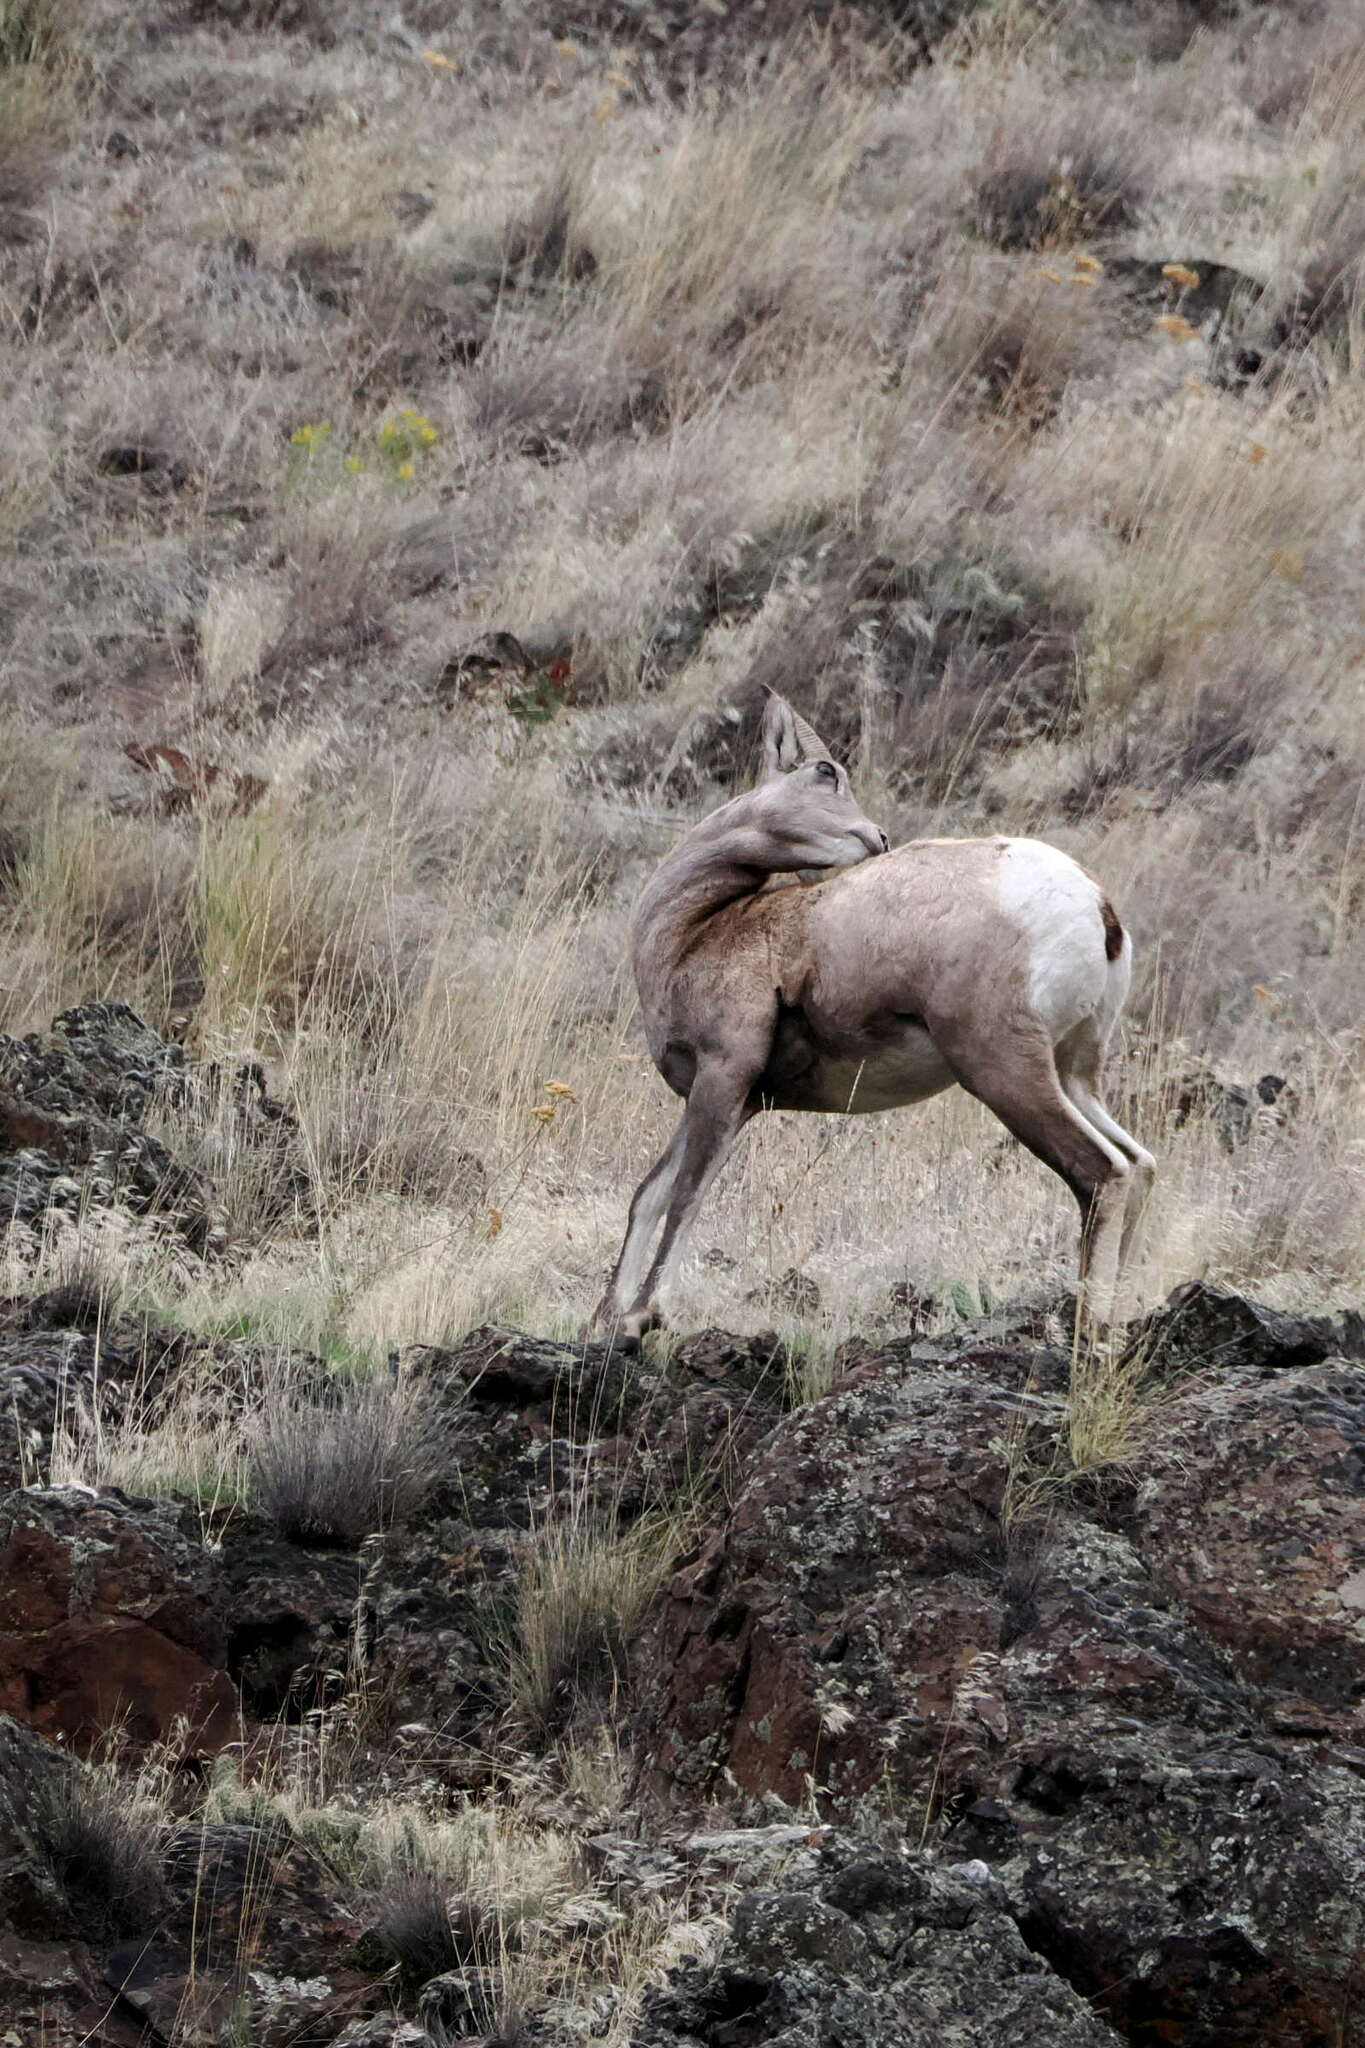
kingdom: Animalia
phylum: Chordata
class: Mammalia
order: Artiodactyla
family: Bovidae
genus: Ovis
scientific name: Ovis canadensis
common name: Bighorn sheep
